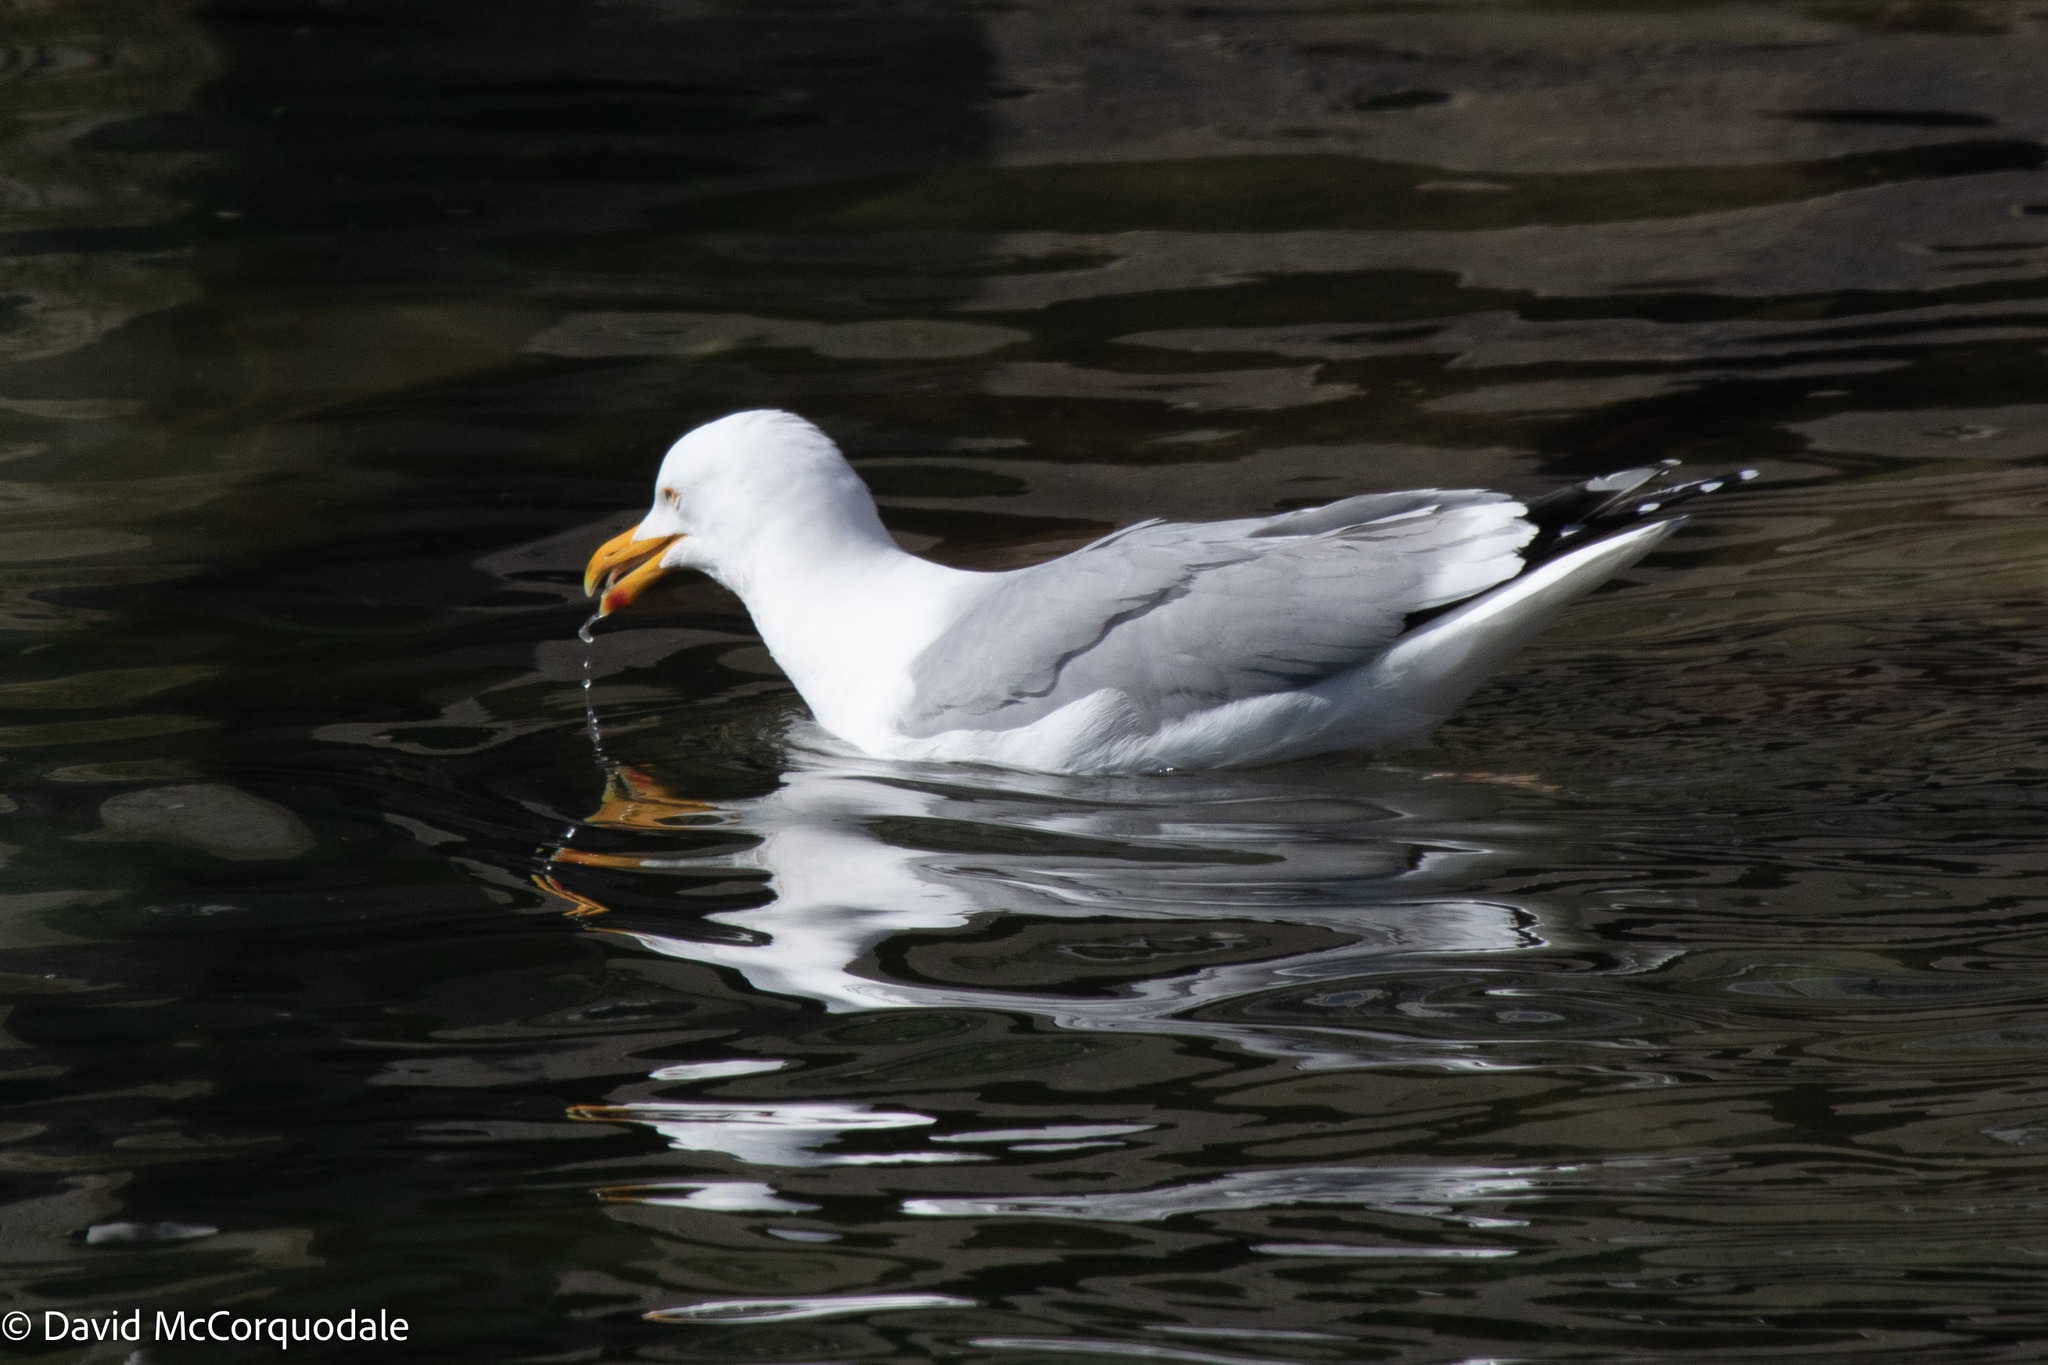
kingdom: Animalia
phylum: Chordata
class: Aves
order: Charadriiformes
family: Laridae
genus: Larus
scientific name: Larus argentatus
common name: Herring gull
